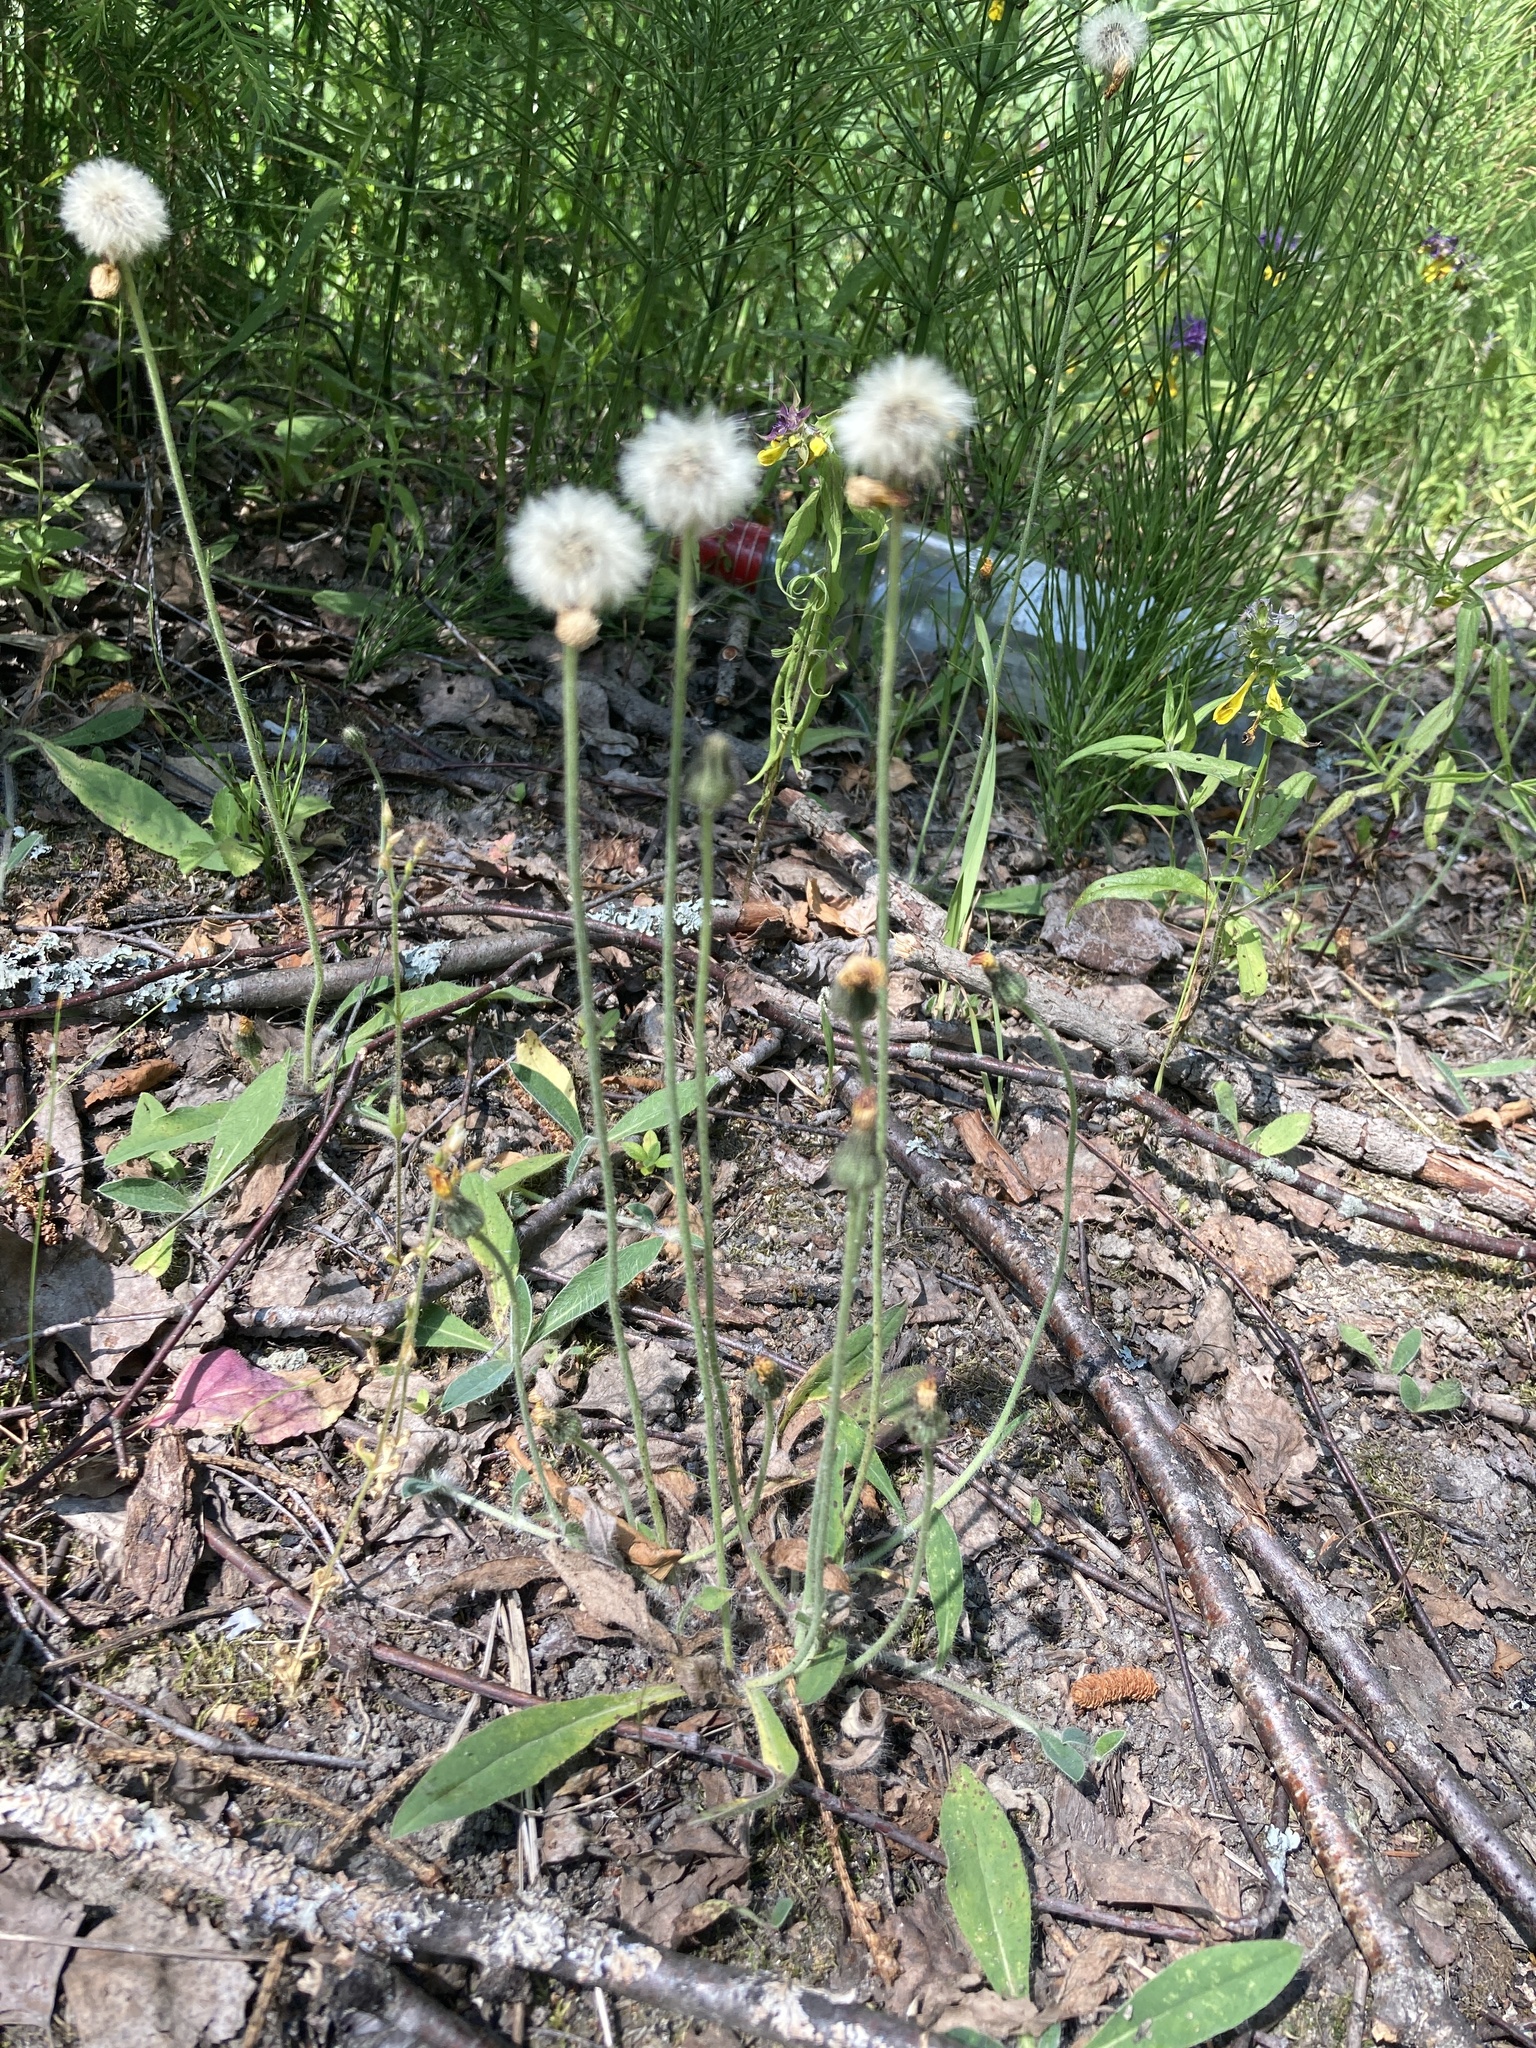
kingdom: Plantae
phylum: Tracheophyta
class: Magnoliopsida
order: Asterales
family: Asteraceae
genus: Pilosella
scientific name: Pilosella officinarum
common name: Mouse-ear hawkweed
